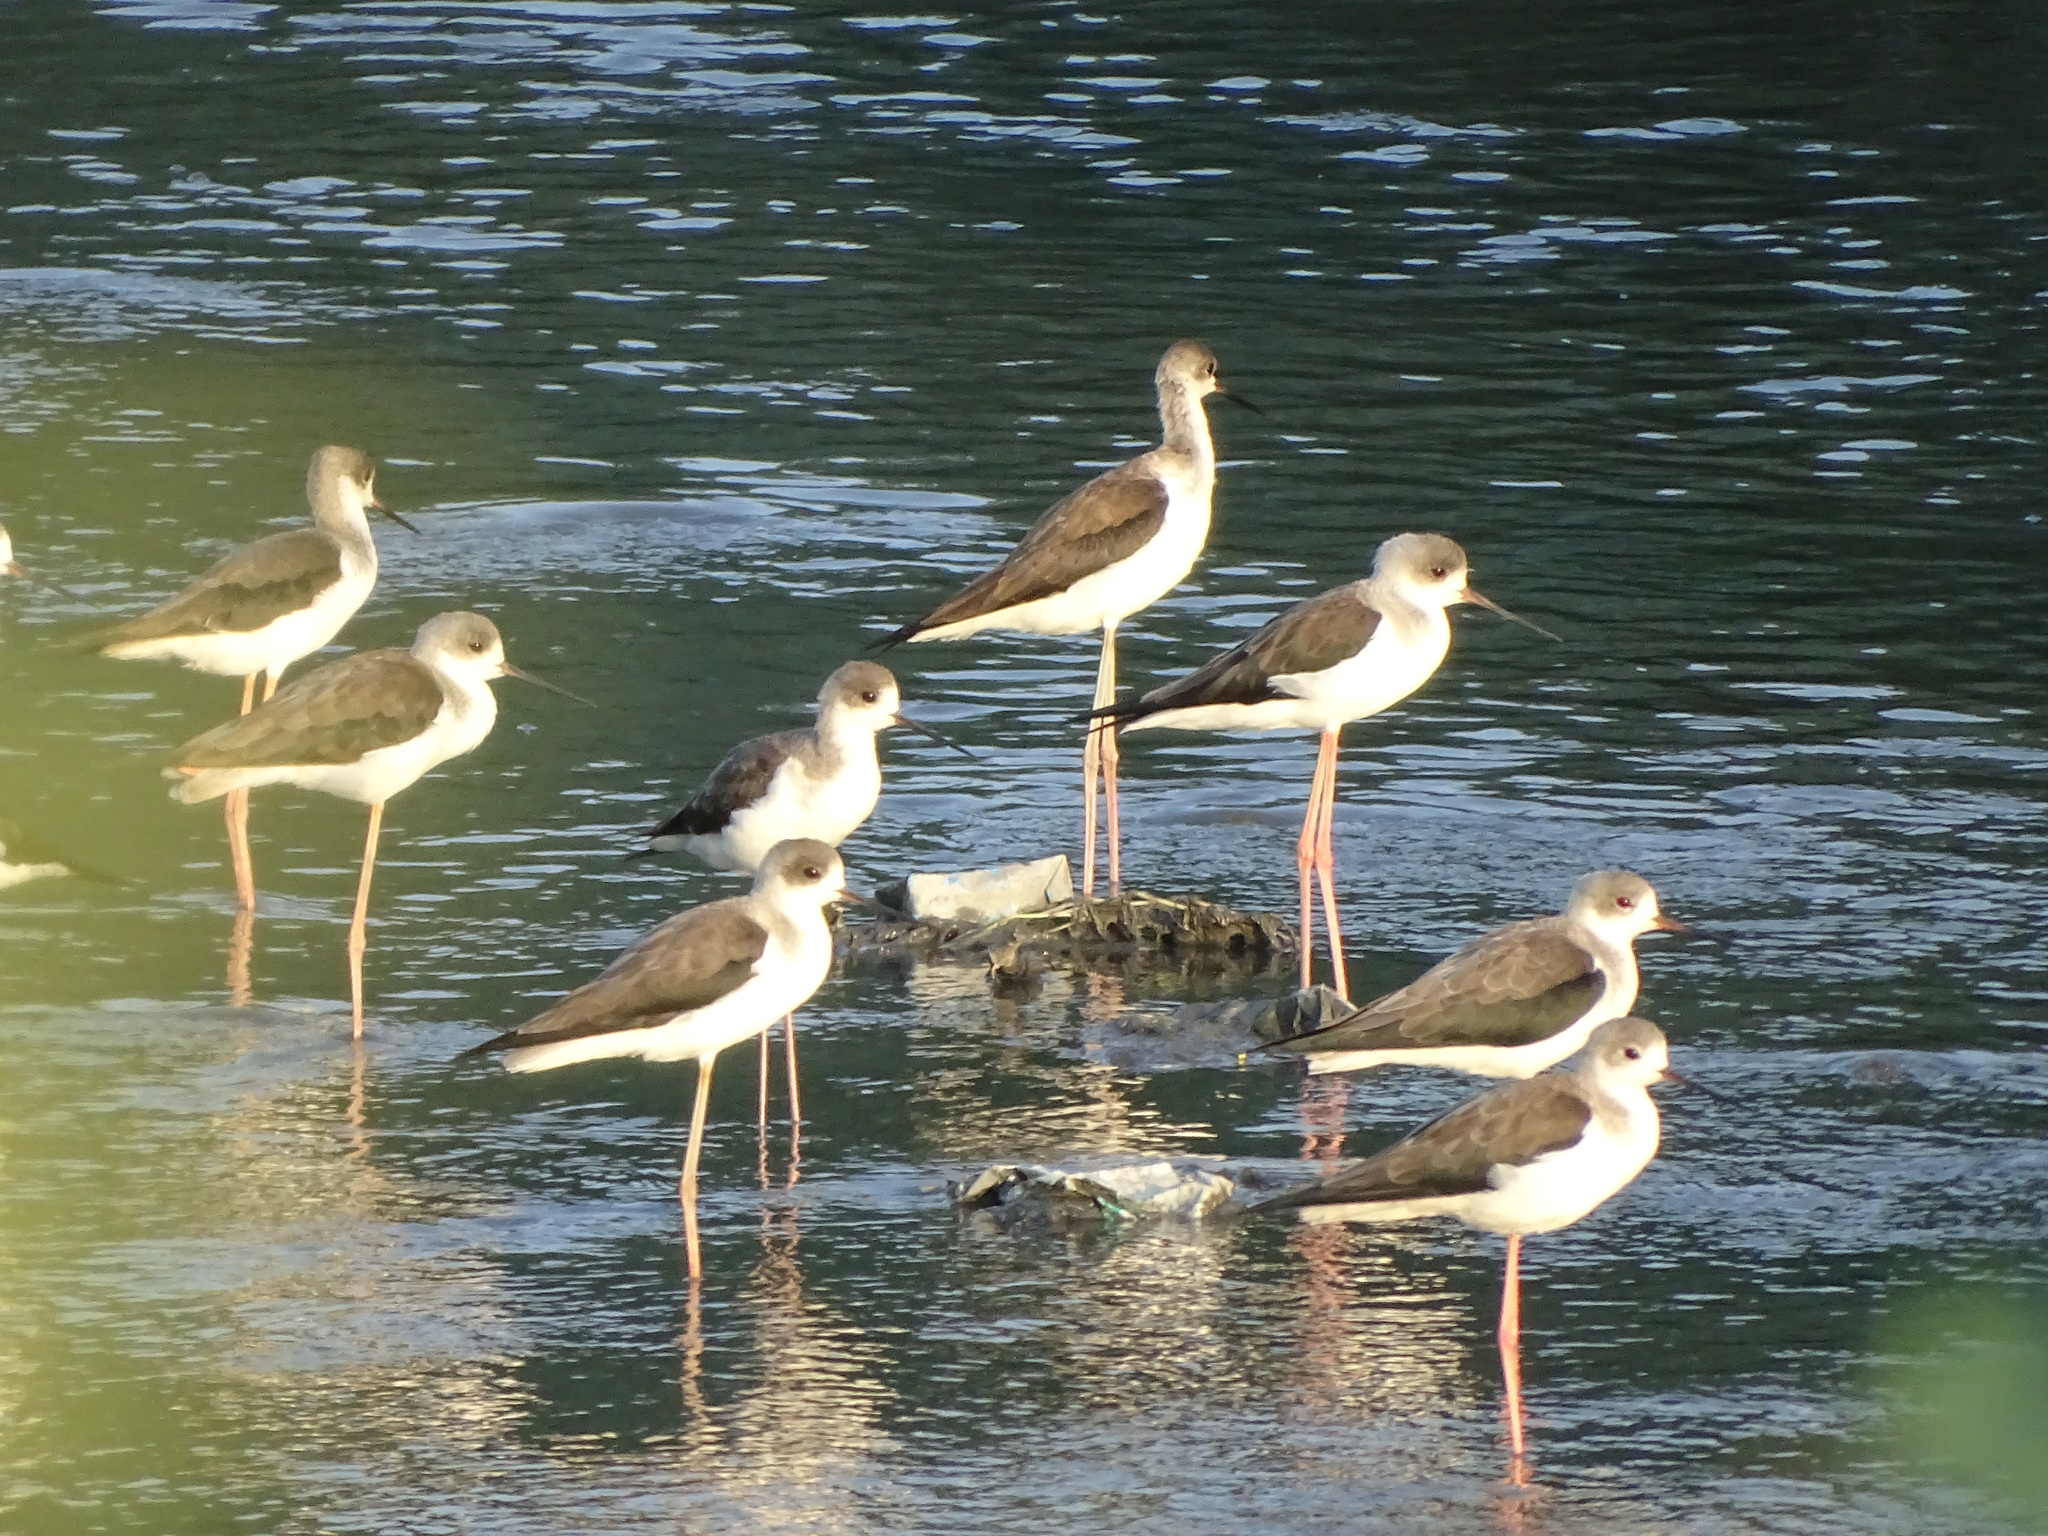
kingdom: Animalia
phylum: Chordata
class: Aves
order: Charadriiformes
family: Recurvirostridae
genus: Himantopus
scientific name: Himantopus himantopus
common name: Black-winged stilt
